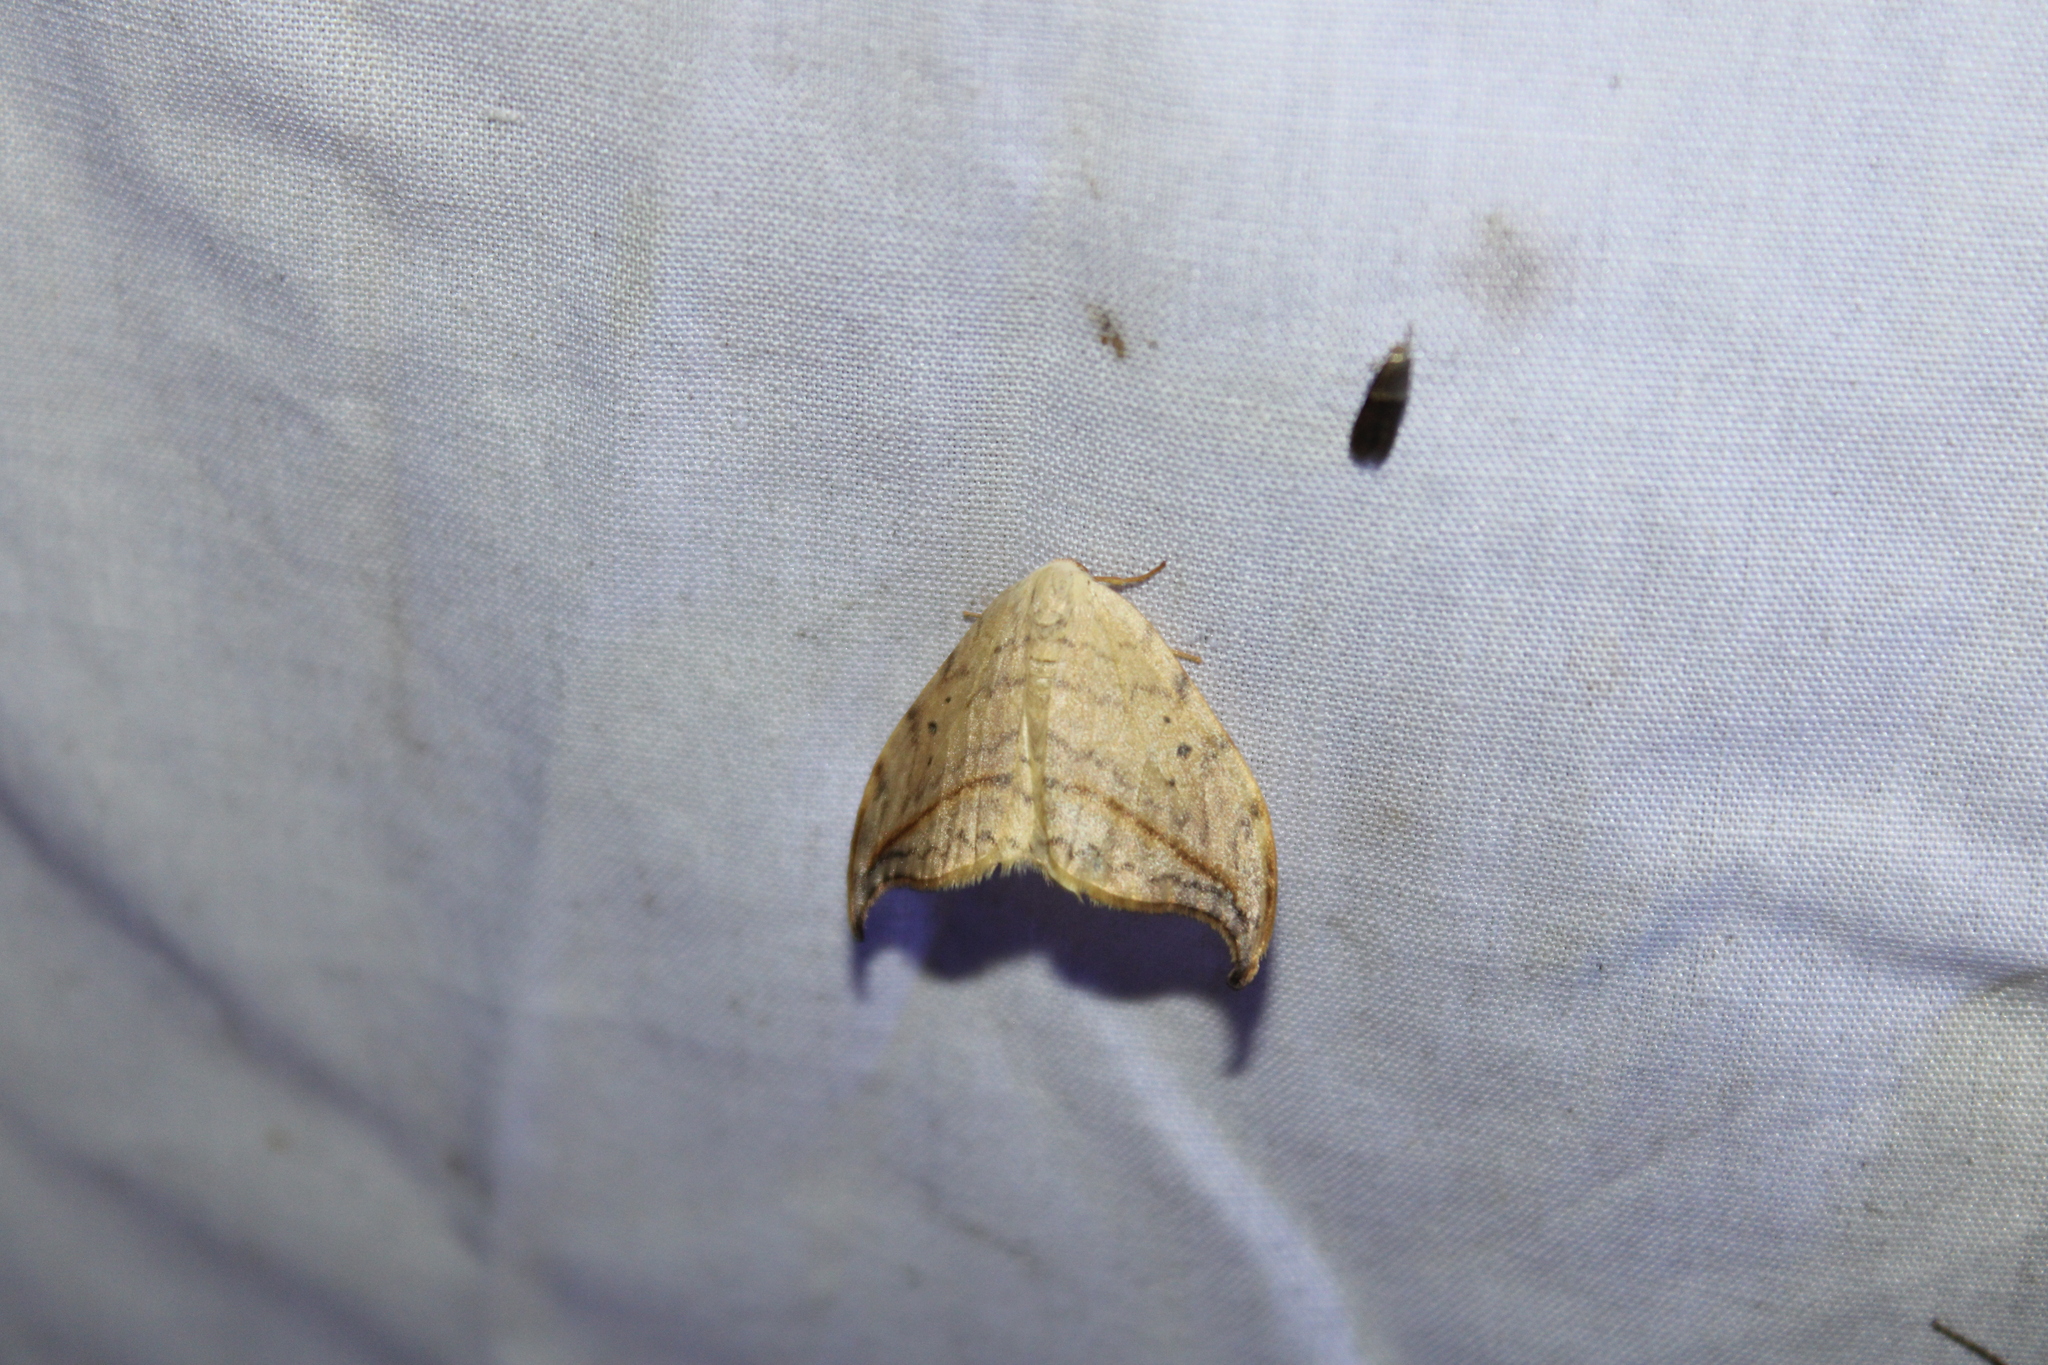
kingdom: Animalia
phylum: Arthropoda
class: Insecta
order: Lepidoptera
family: Drepanidae
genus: Drepana
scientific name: Drepana arcuata
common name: Arched hooktip moth
